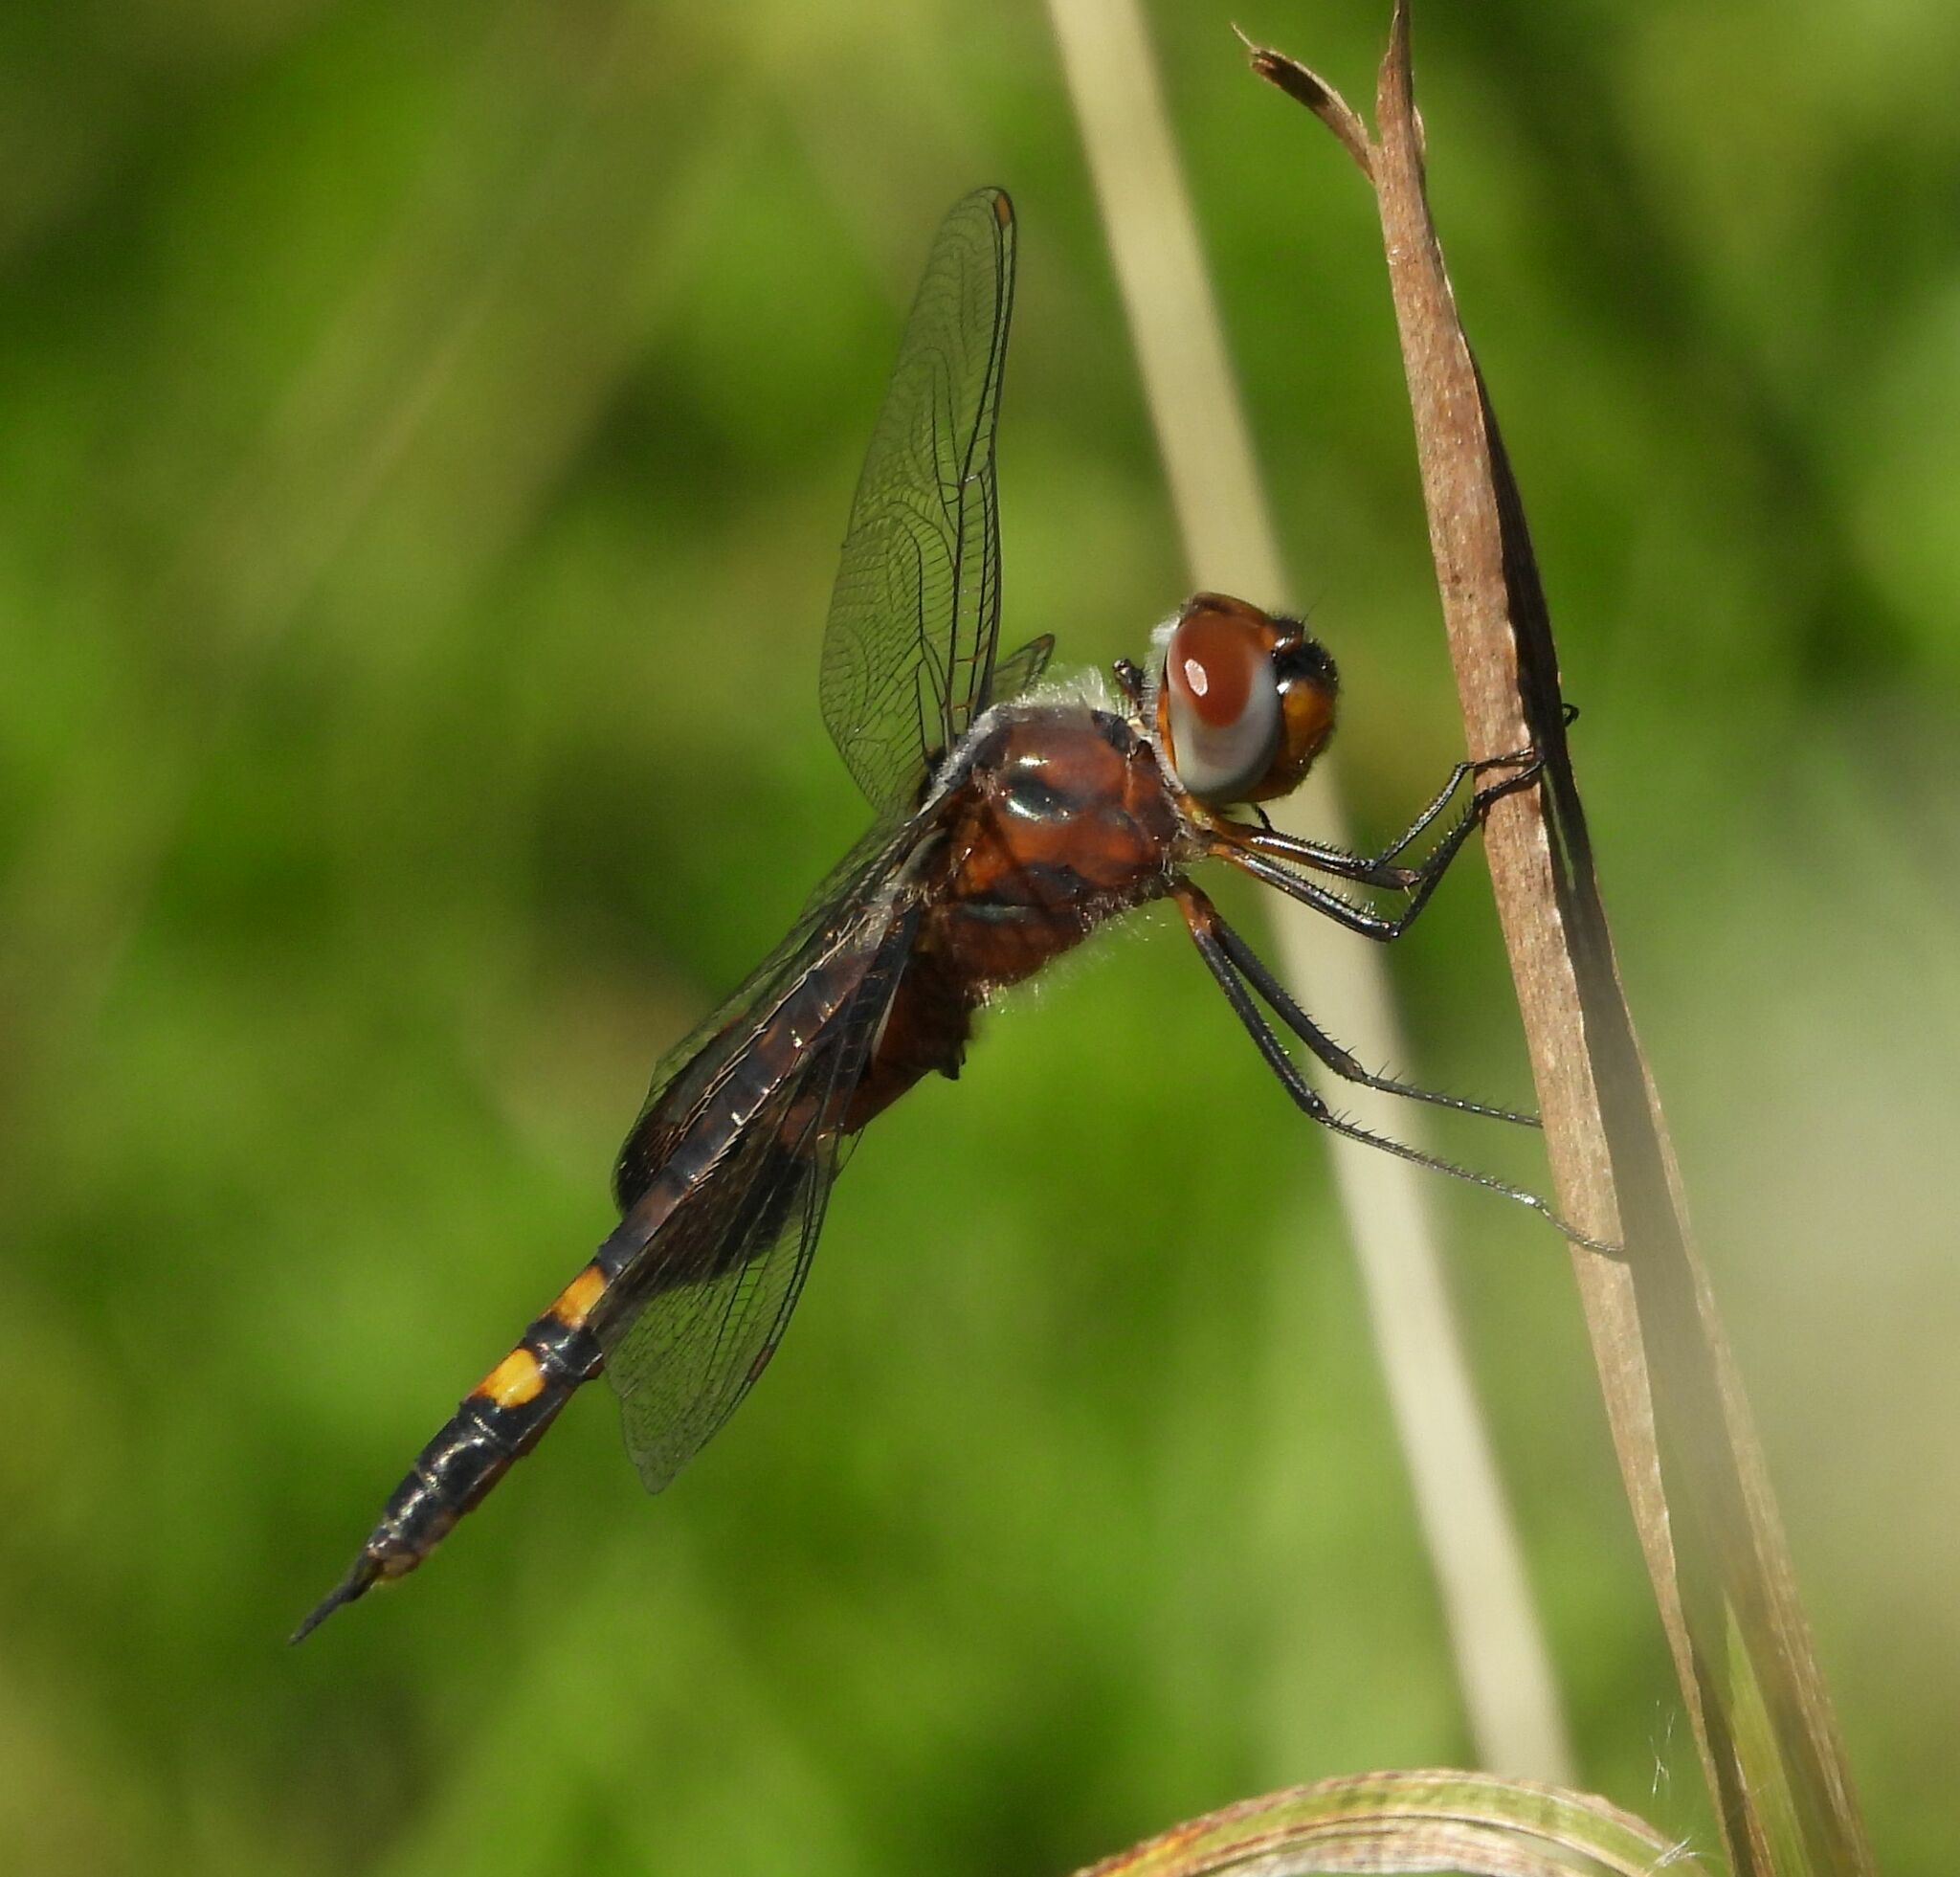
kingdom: Animalia
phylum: Arthropoda
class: Insecta
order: Odonata
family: Libellulidae
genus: Tramea
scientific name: Tramea lacerata
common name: Black saddlebags
